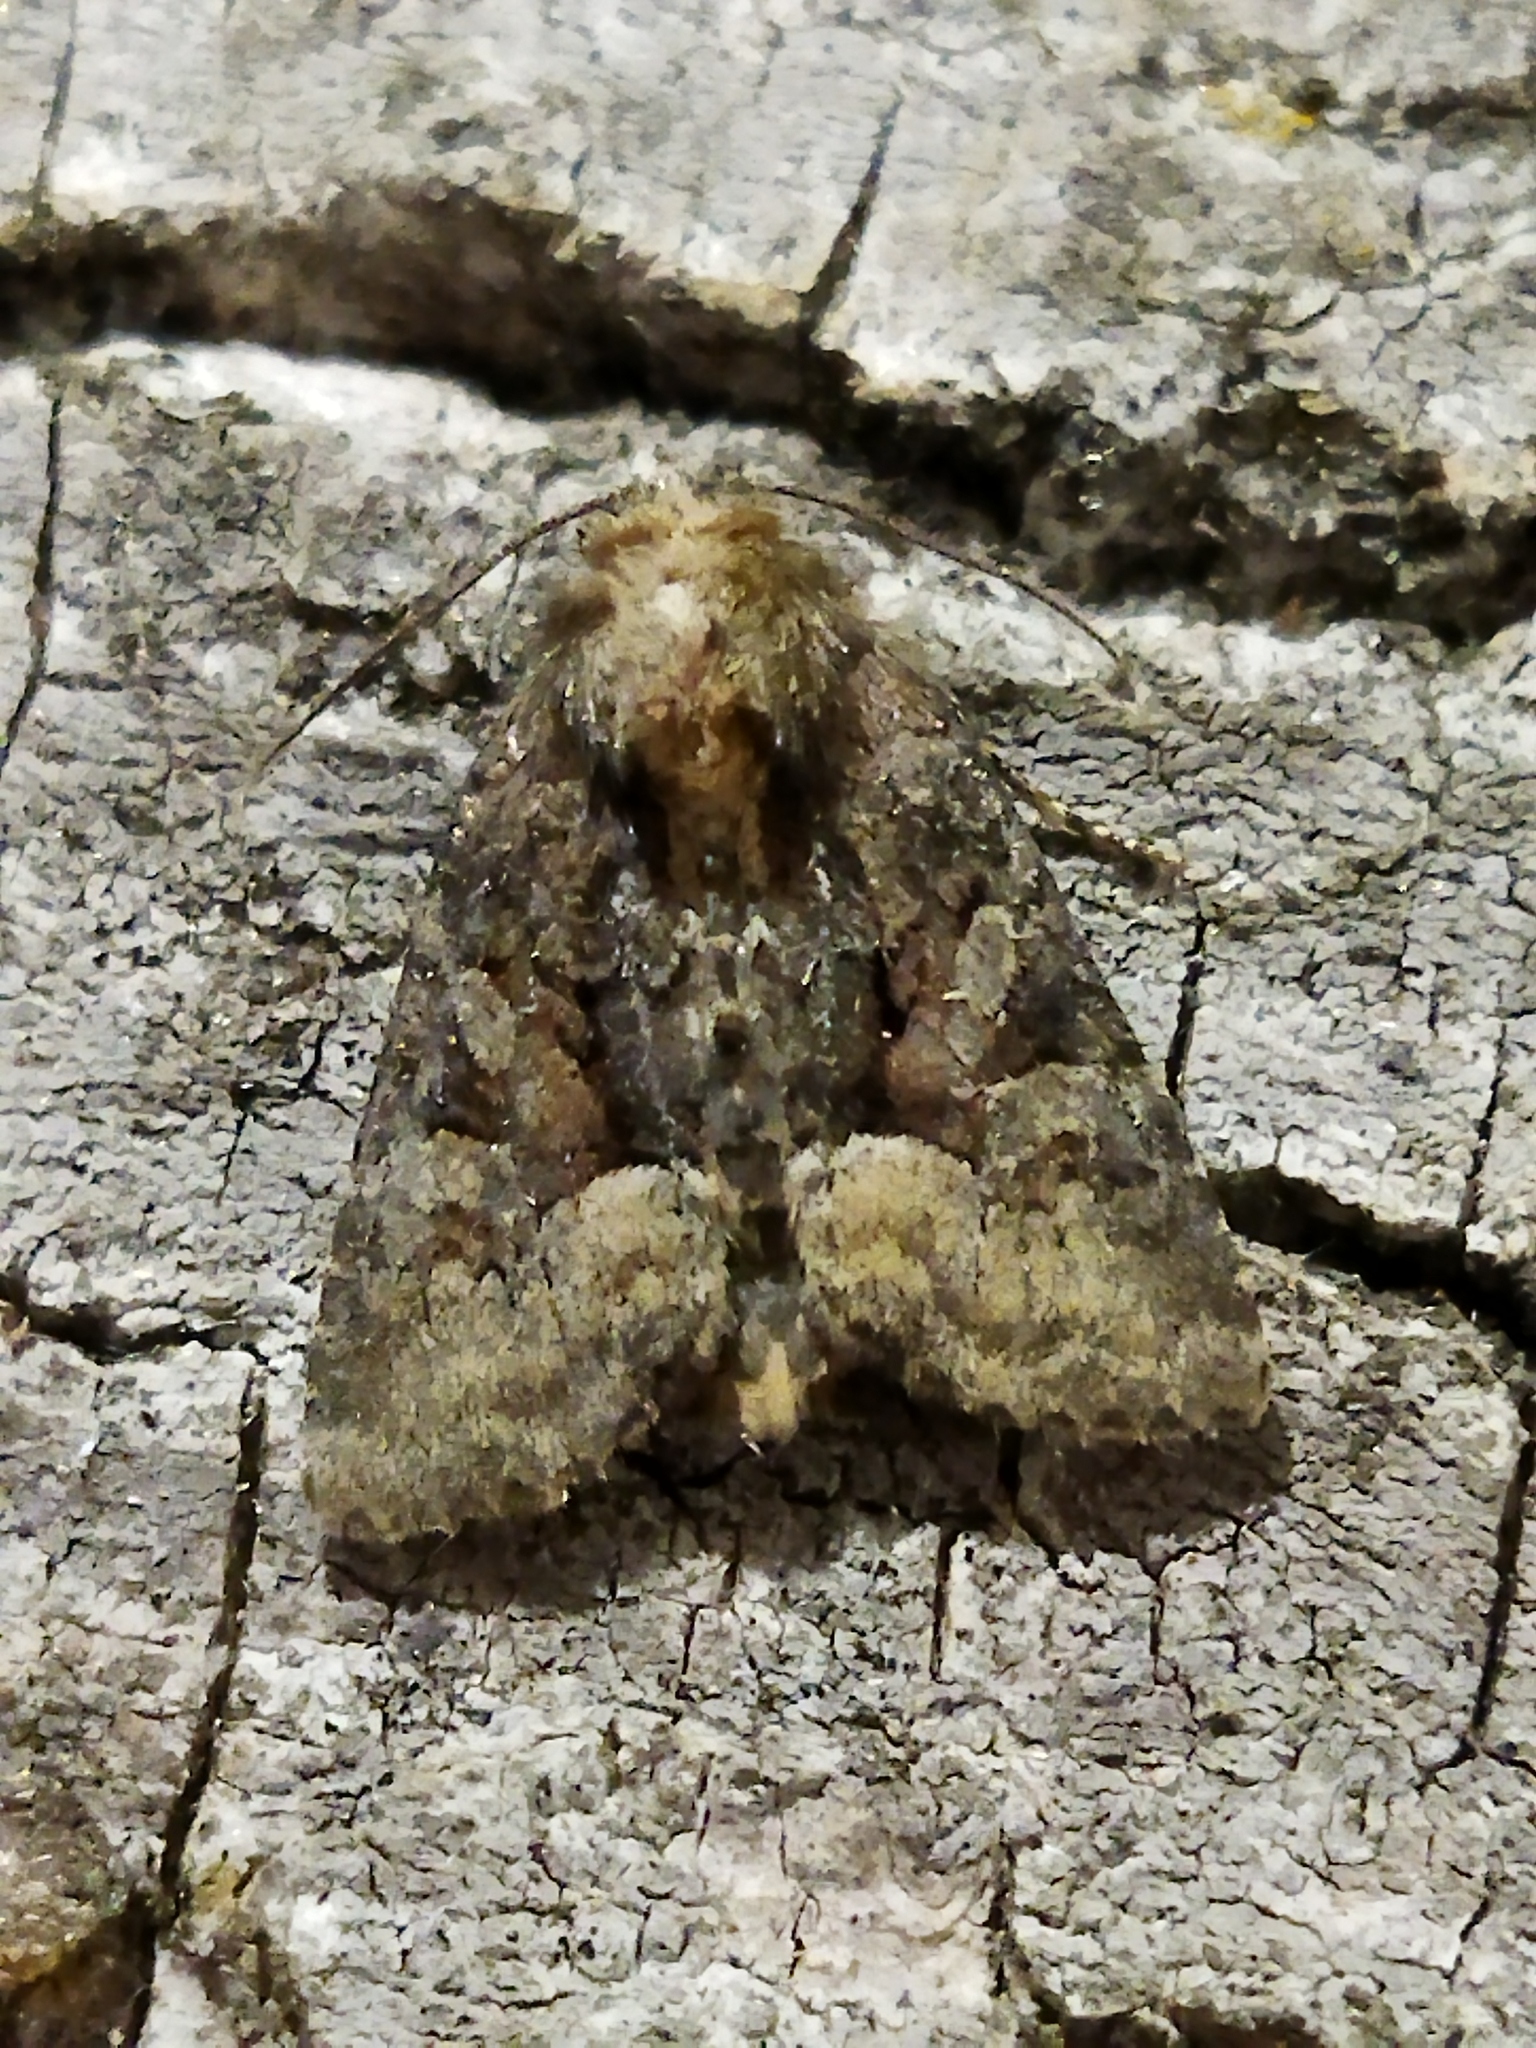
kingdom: Animalia
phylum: Arthropoda
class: Insecta
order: Lepidoptera
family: Noctuidae
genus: Oligia
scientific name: Oligia
